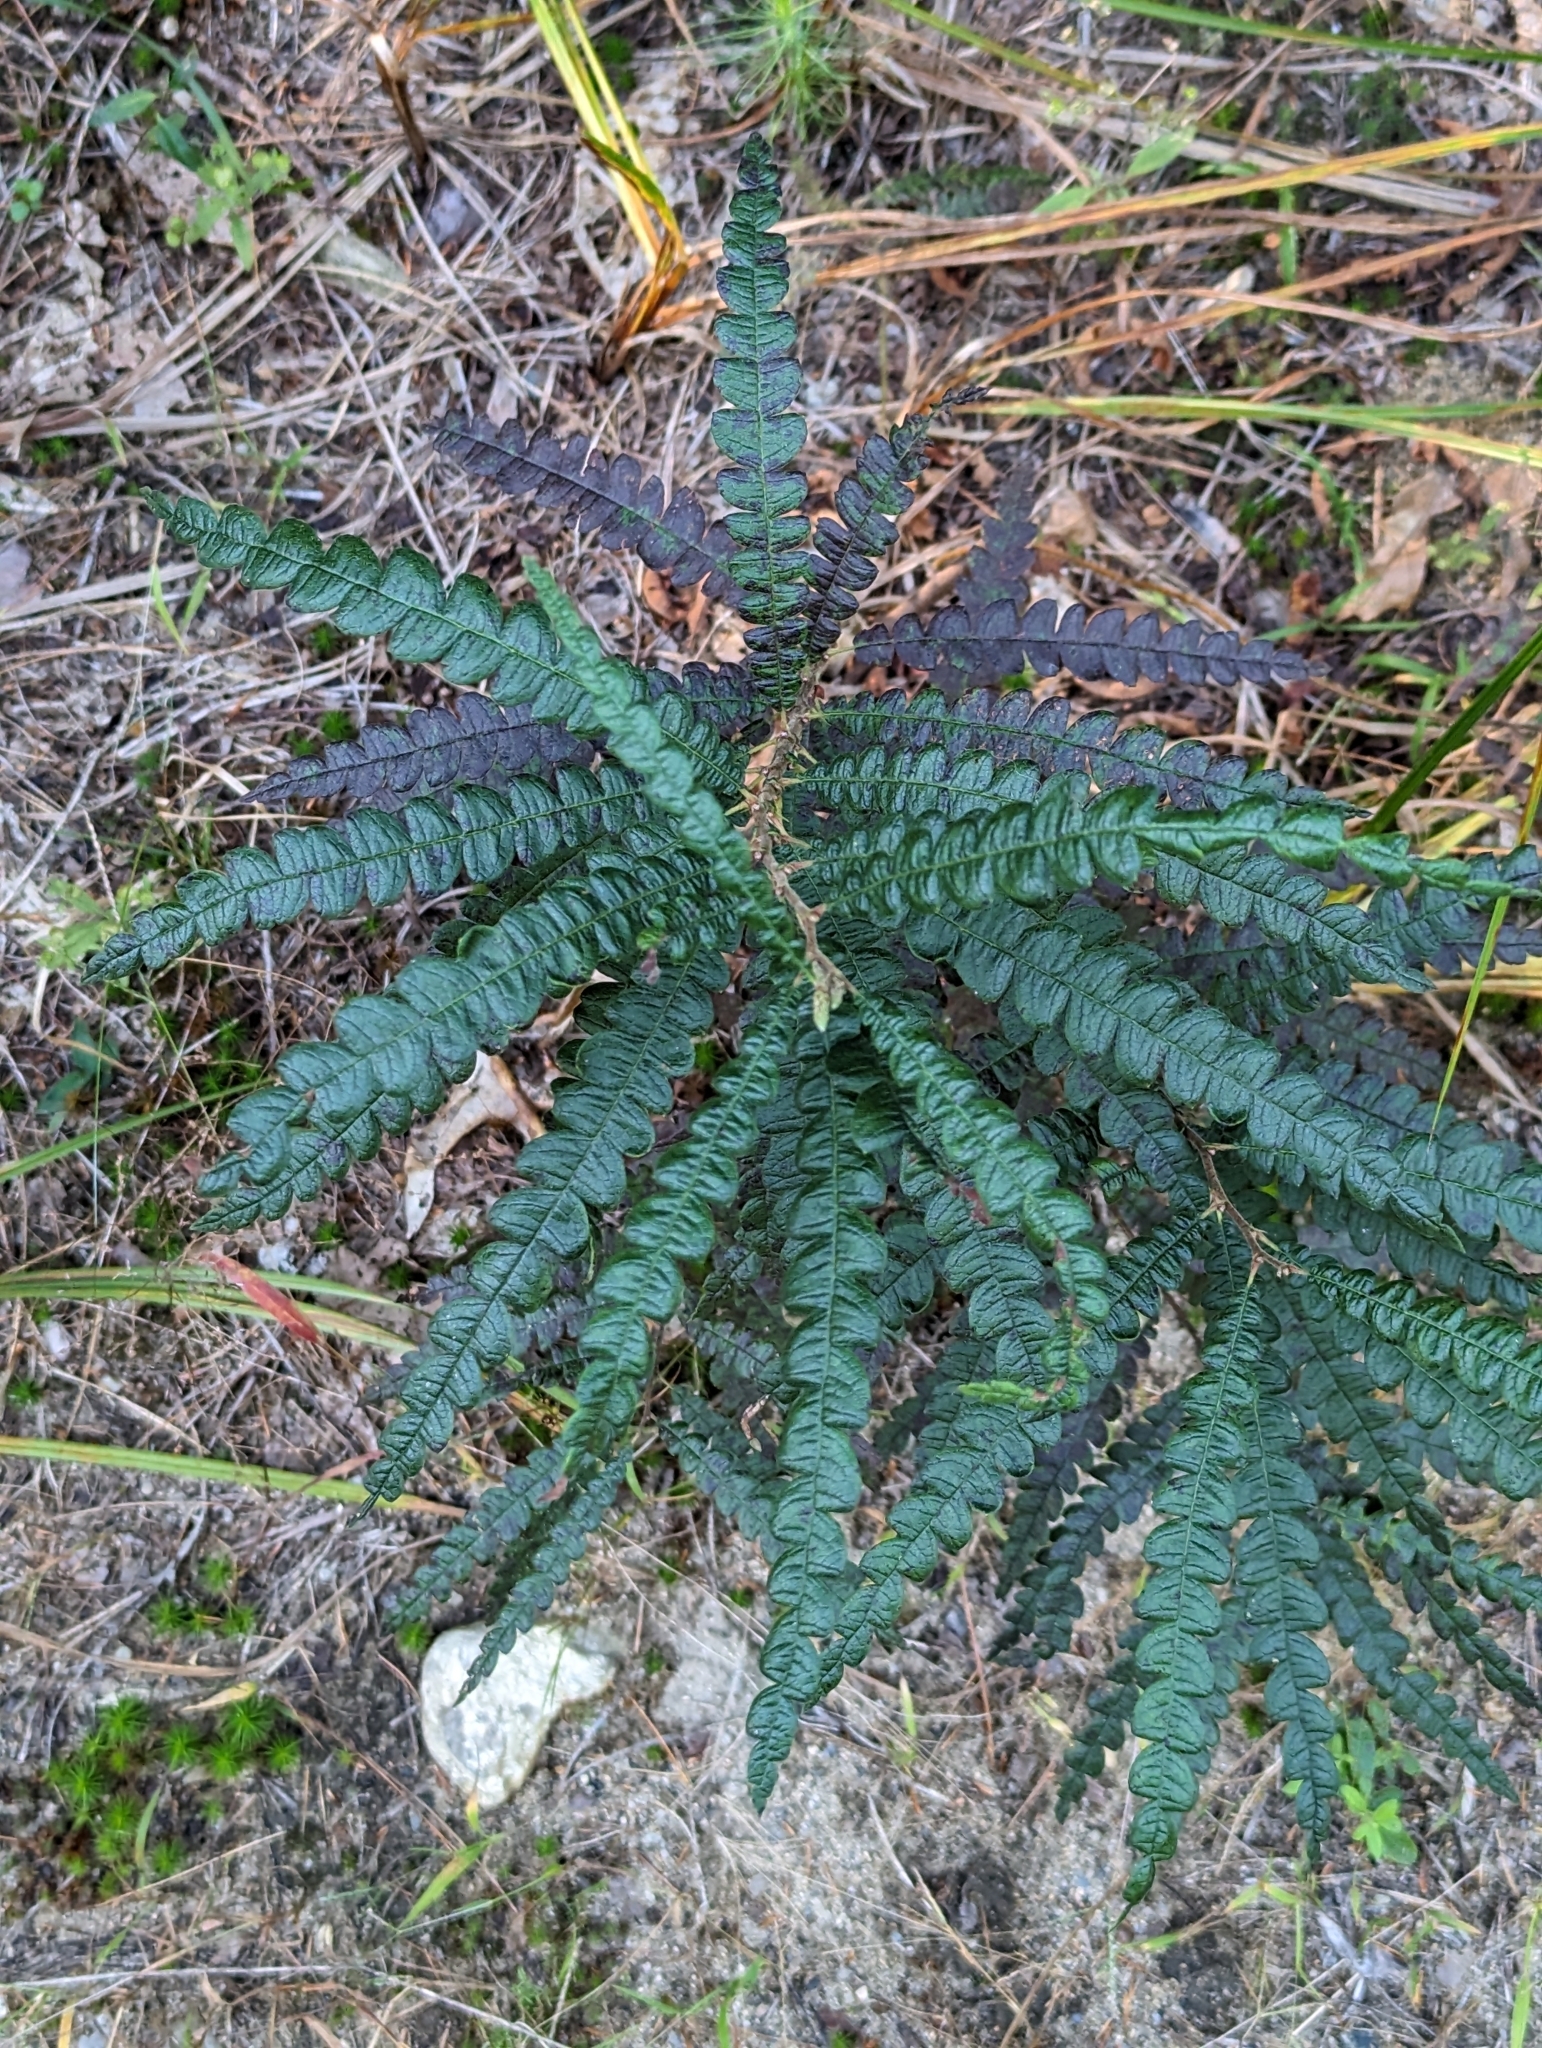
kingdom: Plantae
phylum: Tracheophyta
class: Magnoliopsida
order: Fagales
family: Myricaceae
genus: Comptonia
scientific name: Comptonia peregrina
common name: Sweet-fern
